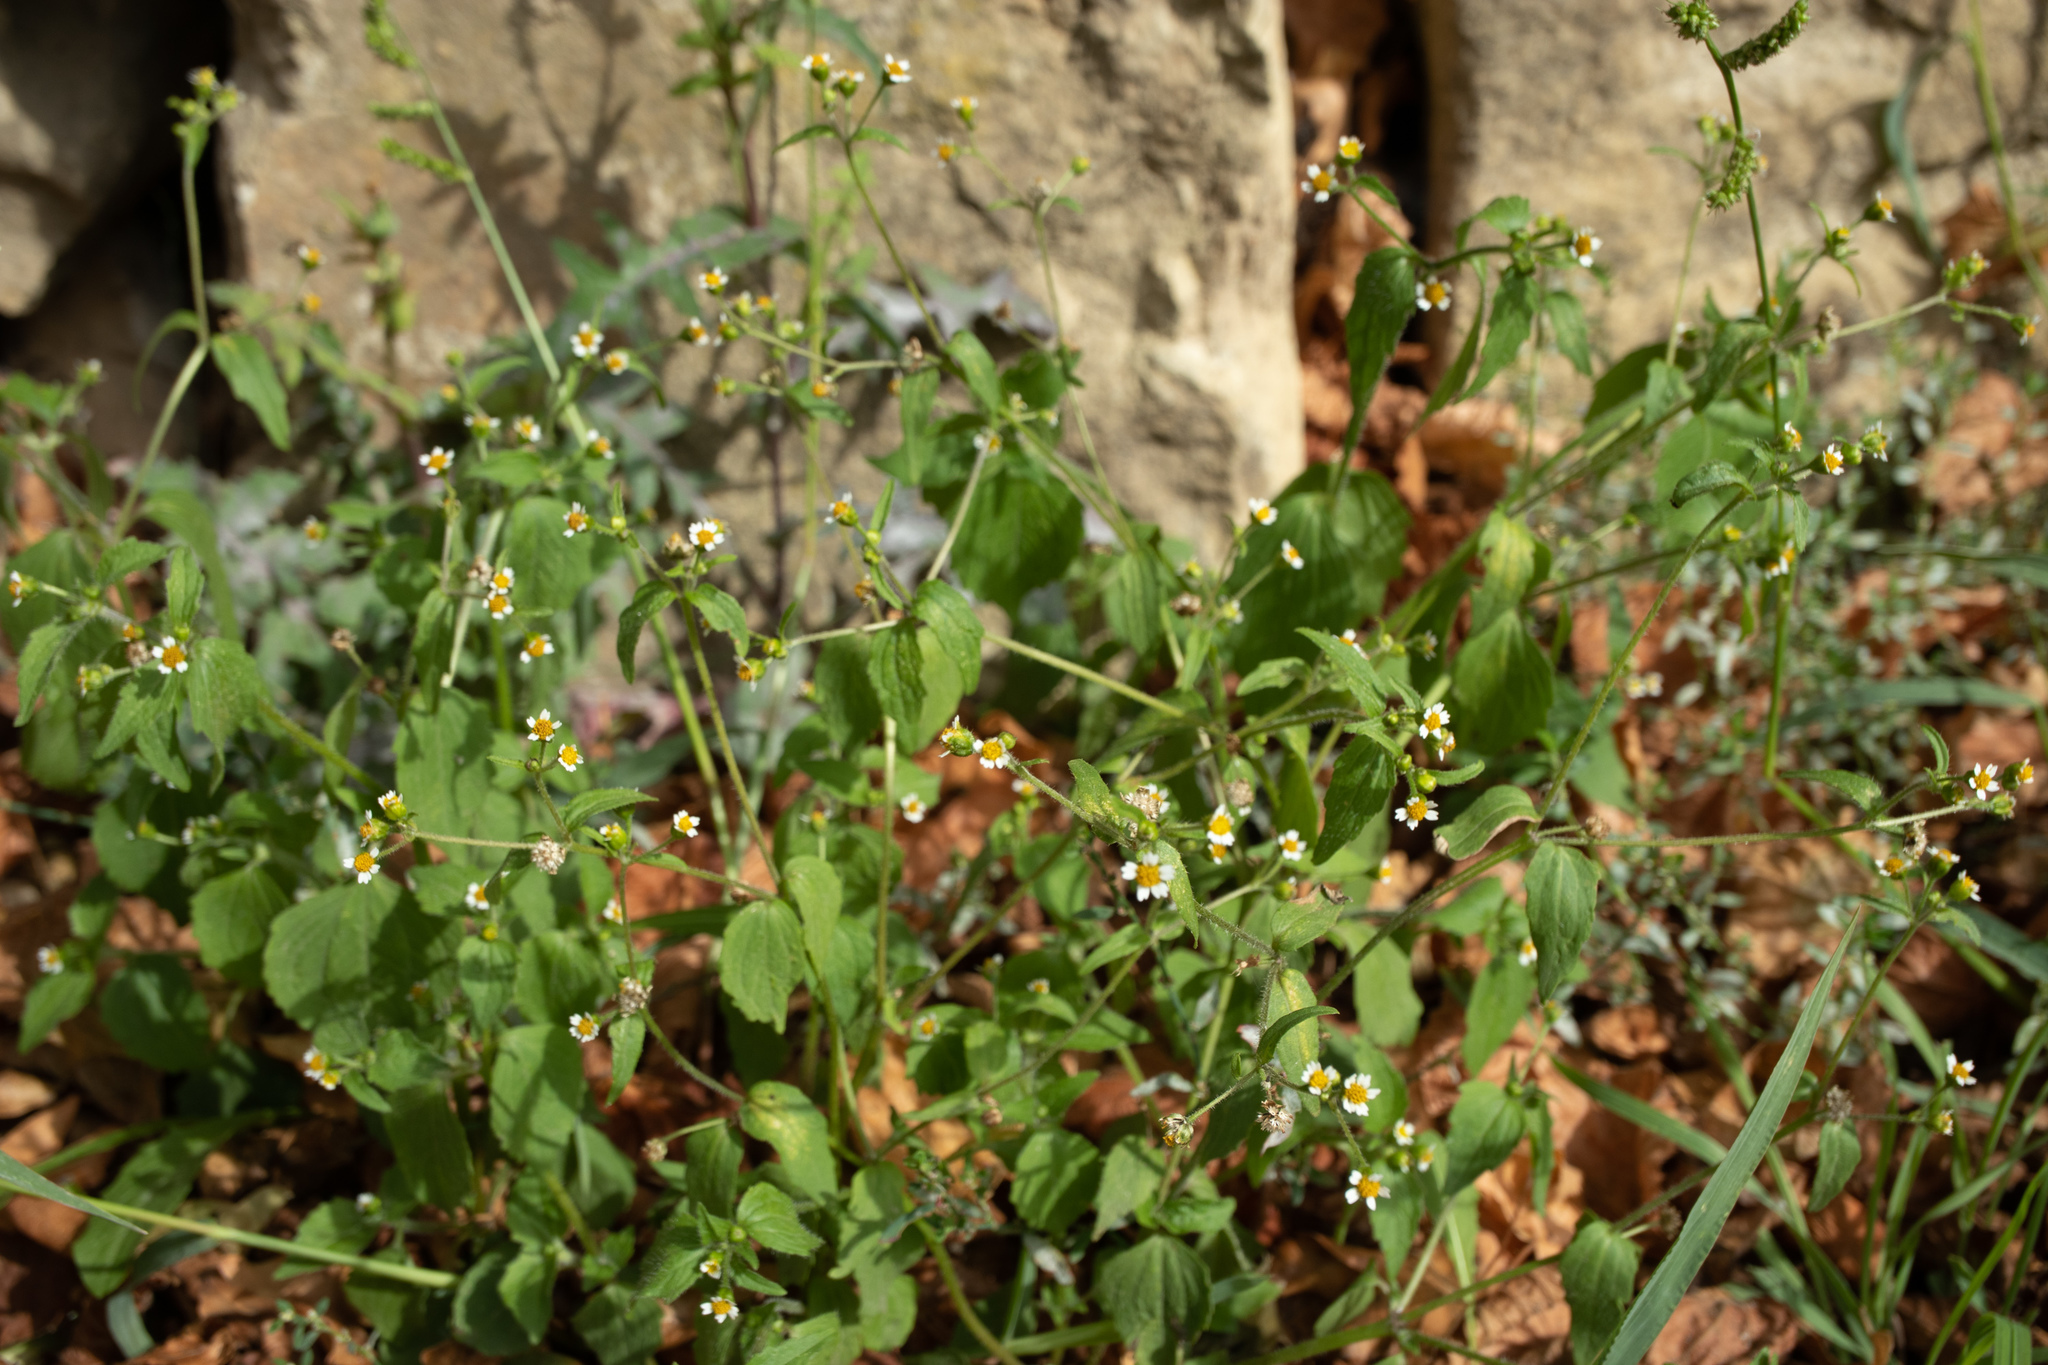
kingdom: Plantae
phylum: Tracheophyta
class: Magnoliopsida
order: Asterales
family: Asteraceae
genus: Galinsoga
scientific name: Galinsoga quadriradiata
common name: Shaggy soldier
